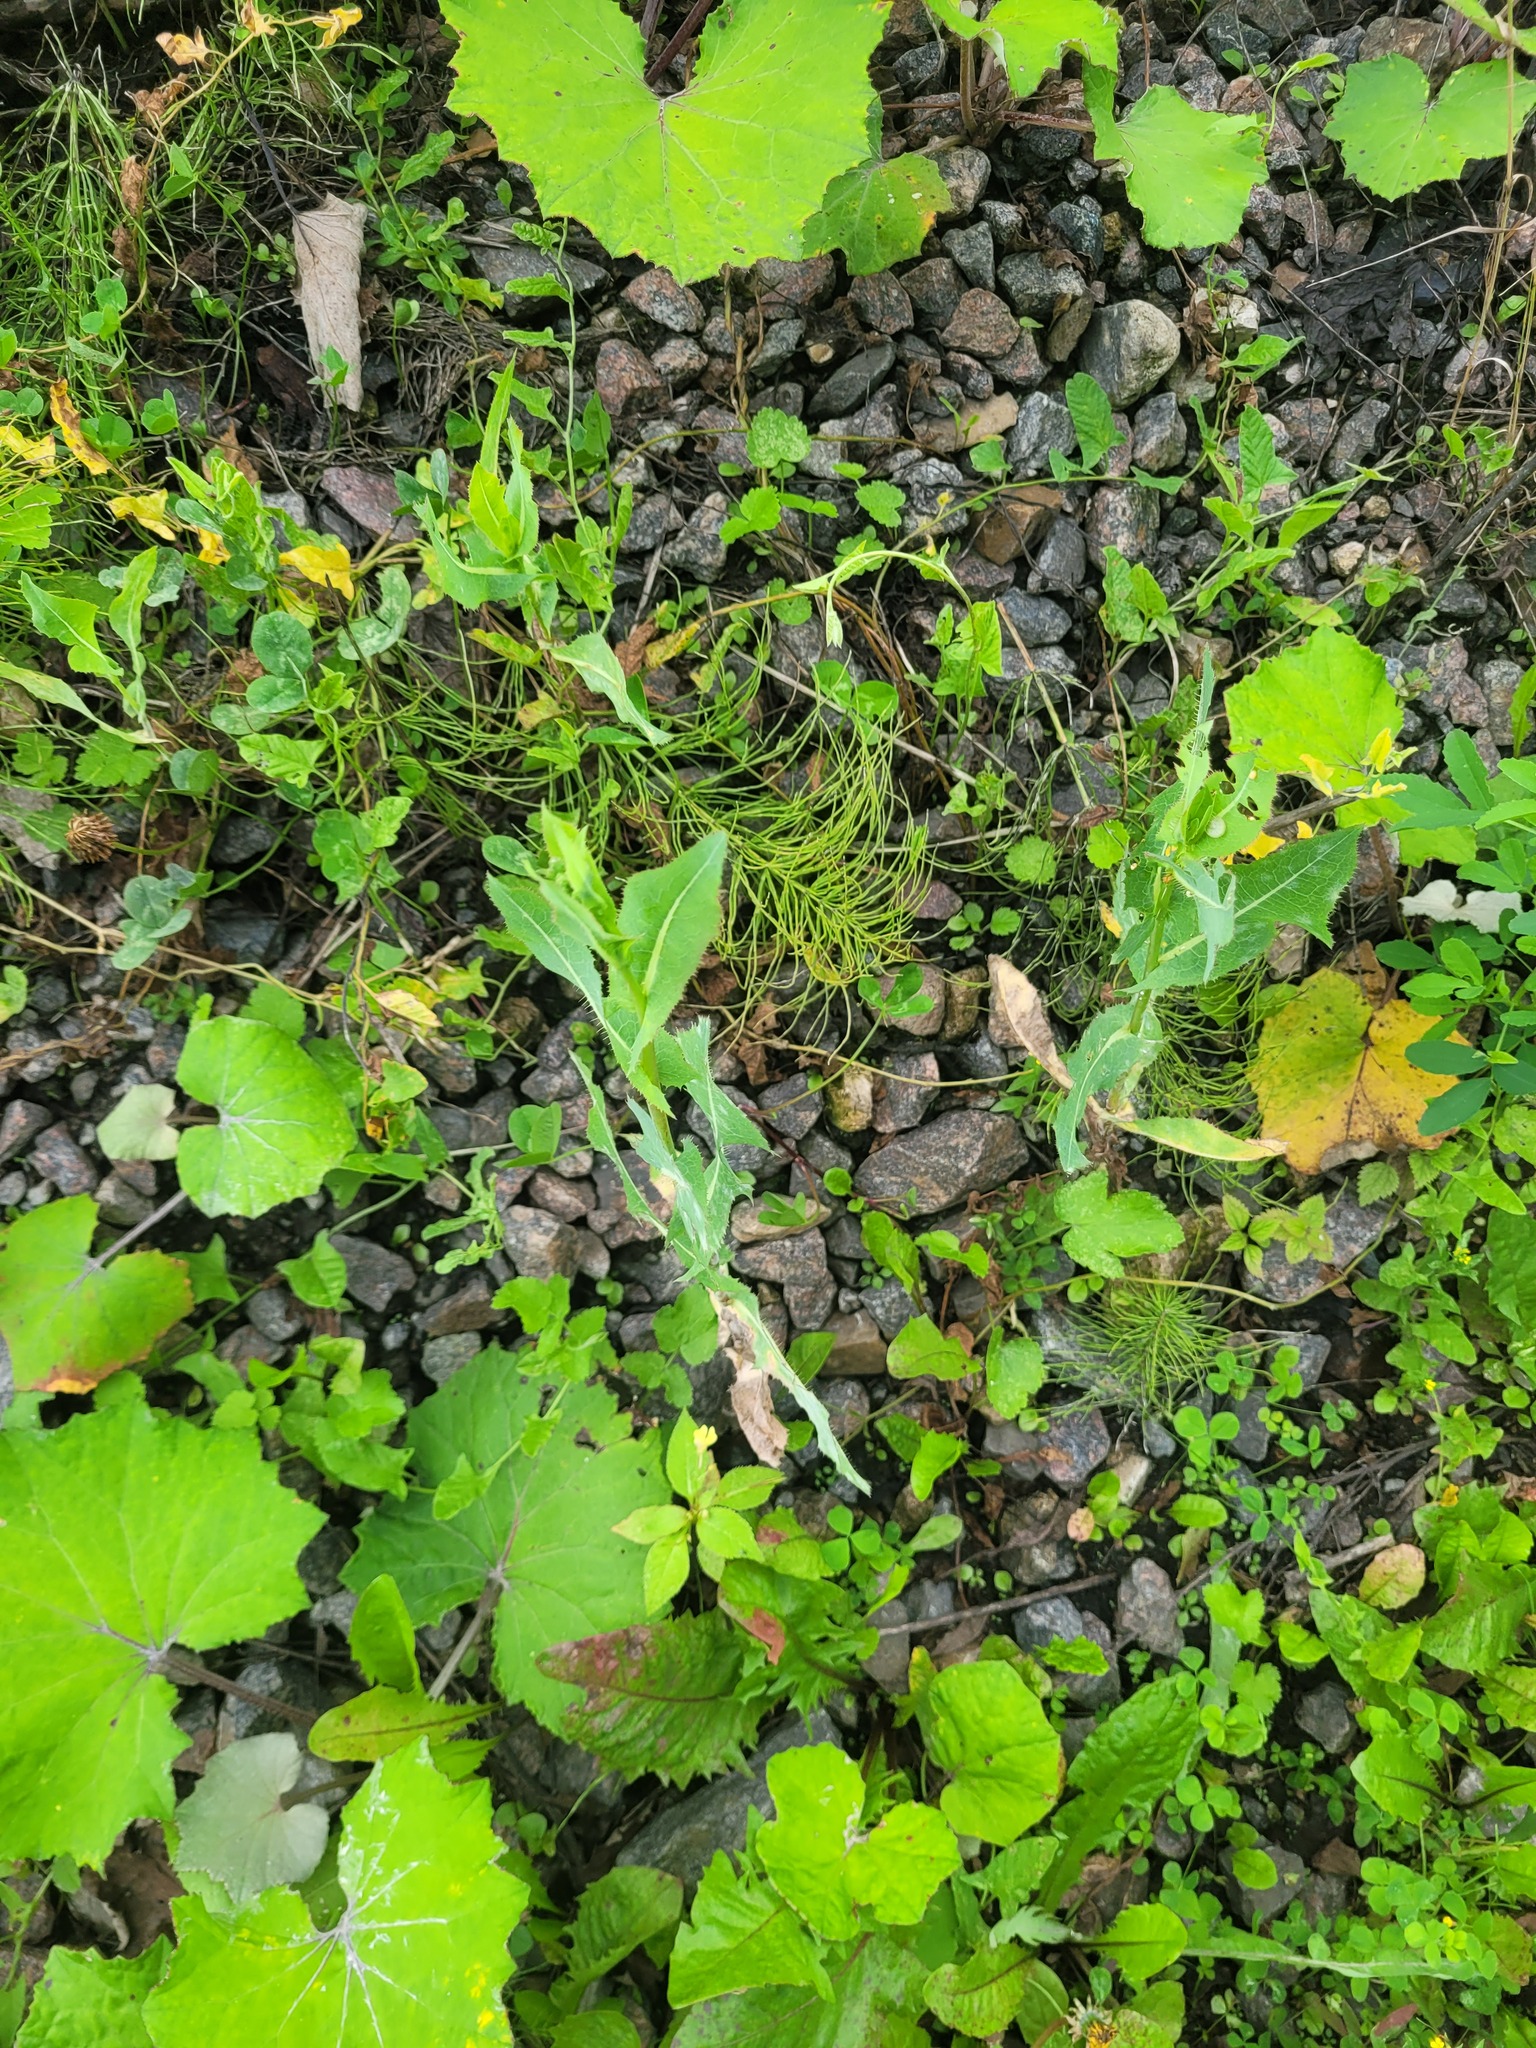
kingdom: Plantae
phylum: Tracheophyta
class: Magnoliopsida
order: Asterales
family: Asteraceae
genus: Lactuca
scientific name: Lactuca serriola
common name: Prickly lettuce
